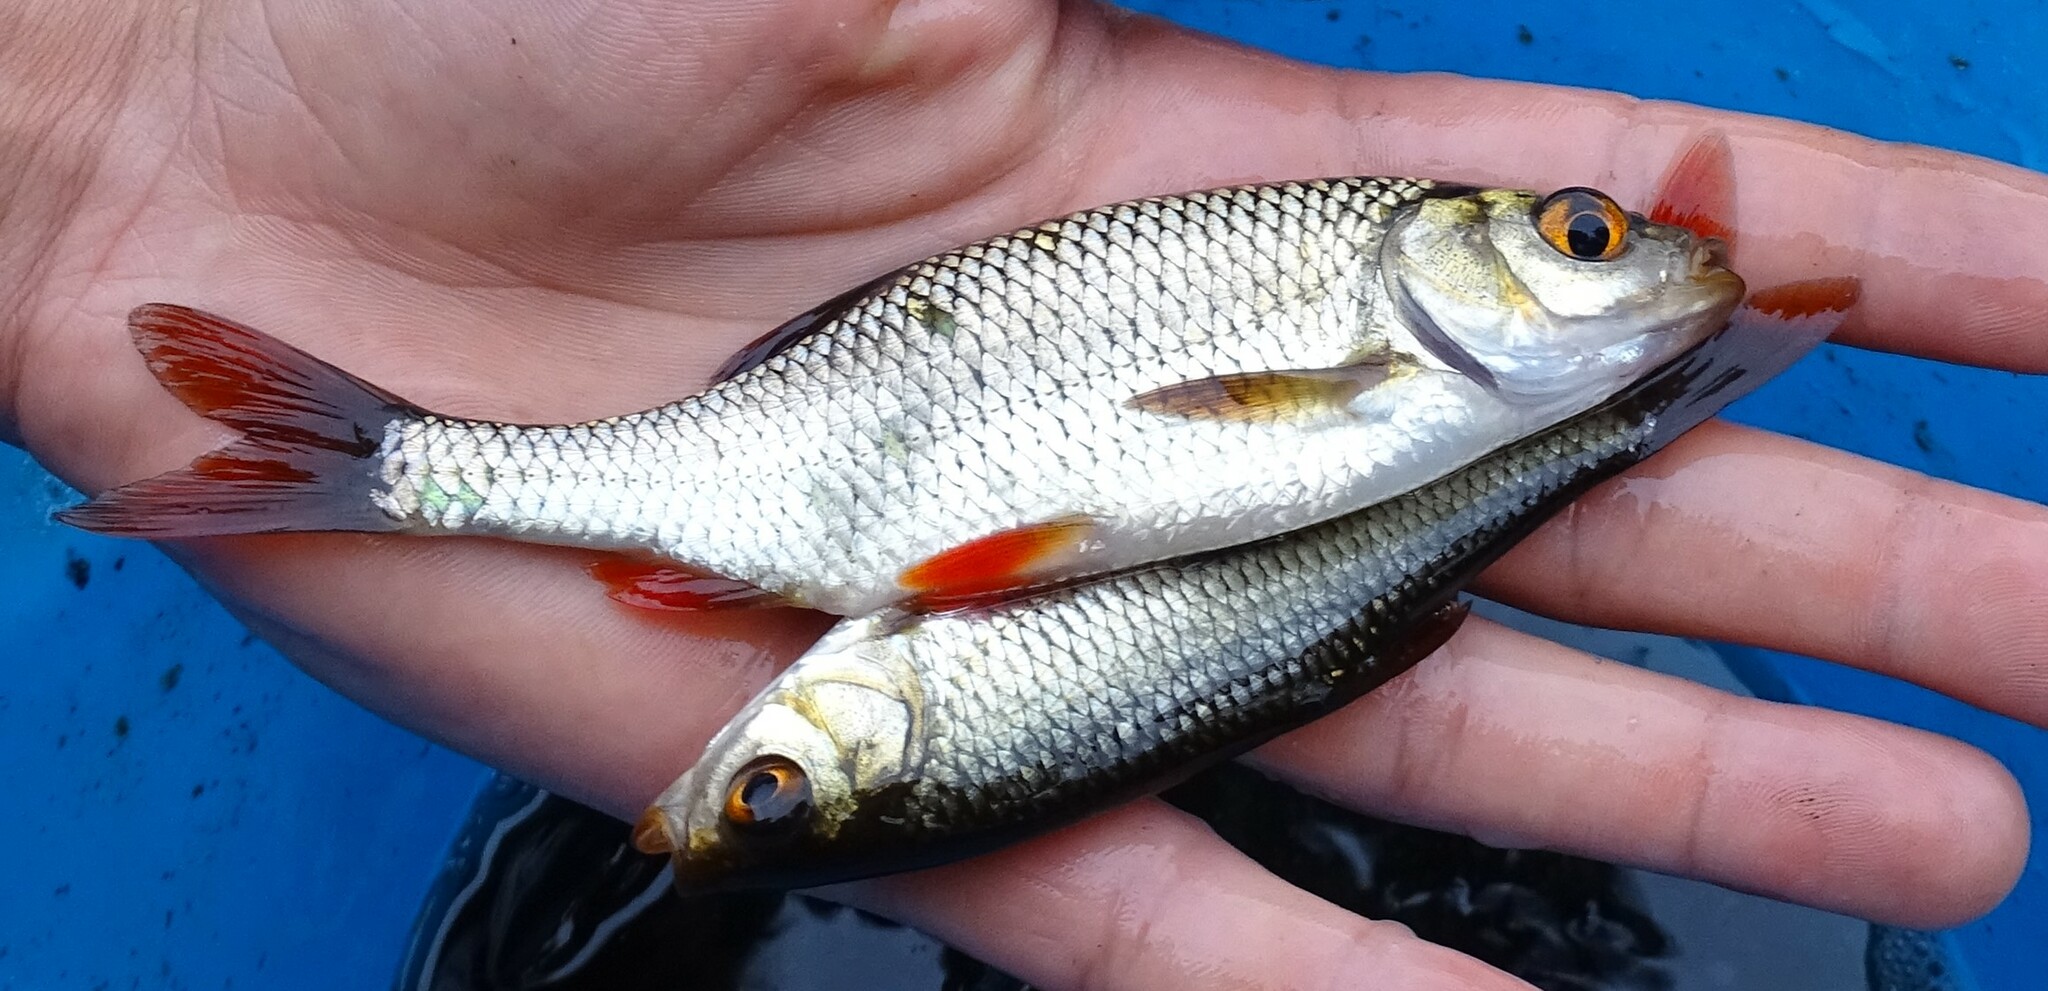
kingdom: Animalia
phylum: Chordata
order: Cypriniformes
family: Cyprinidae
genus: Scardinius
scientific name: Scardinius erythrophthalmus
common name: Rudd
